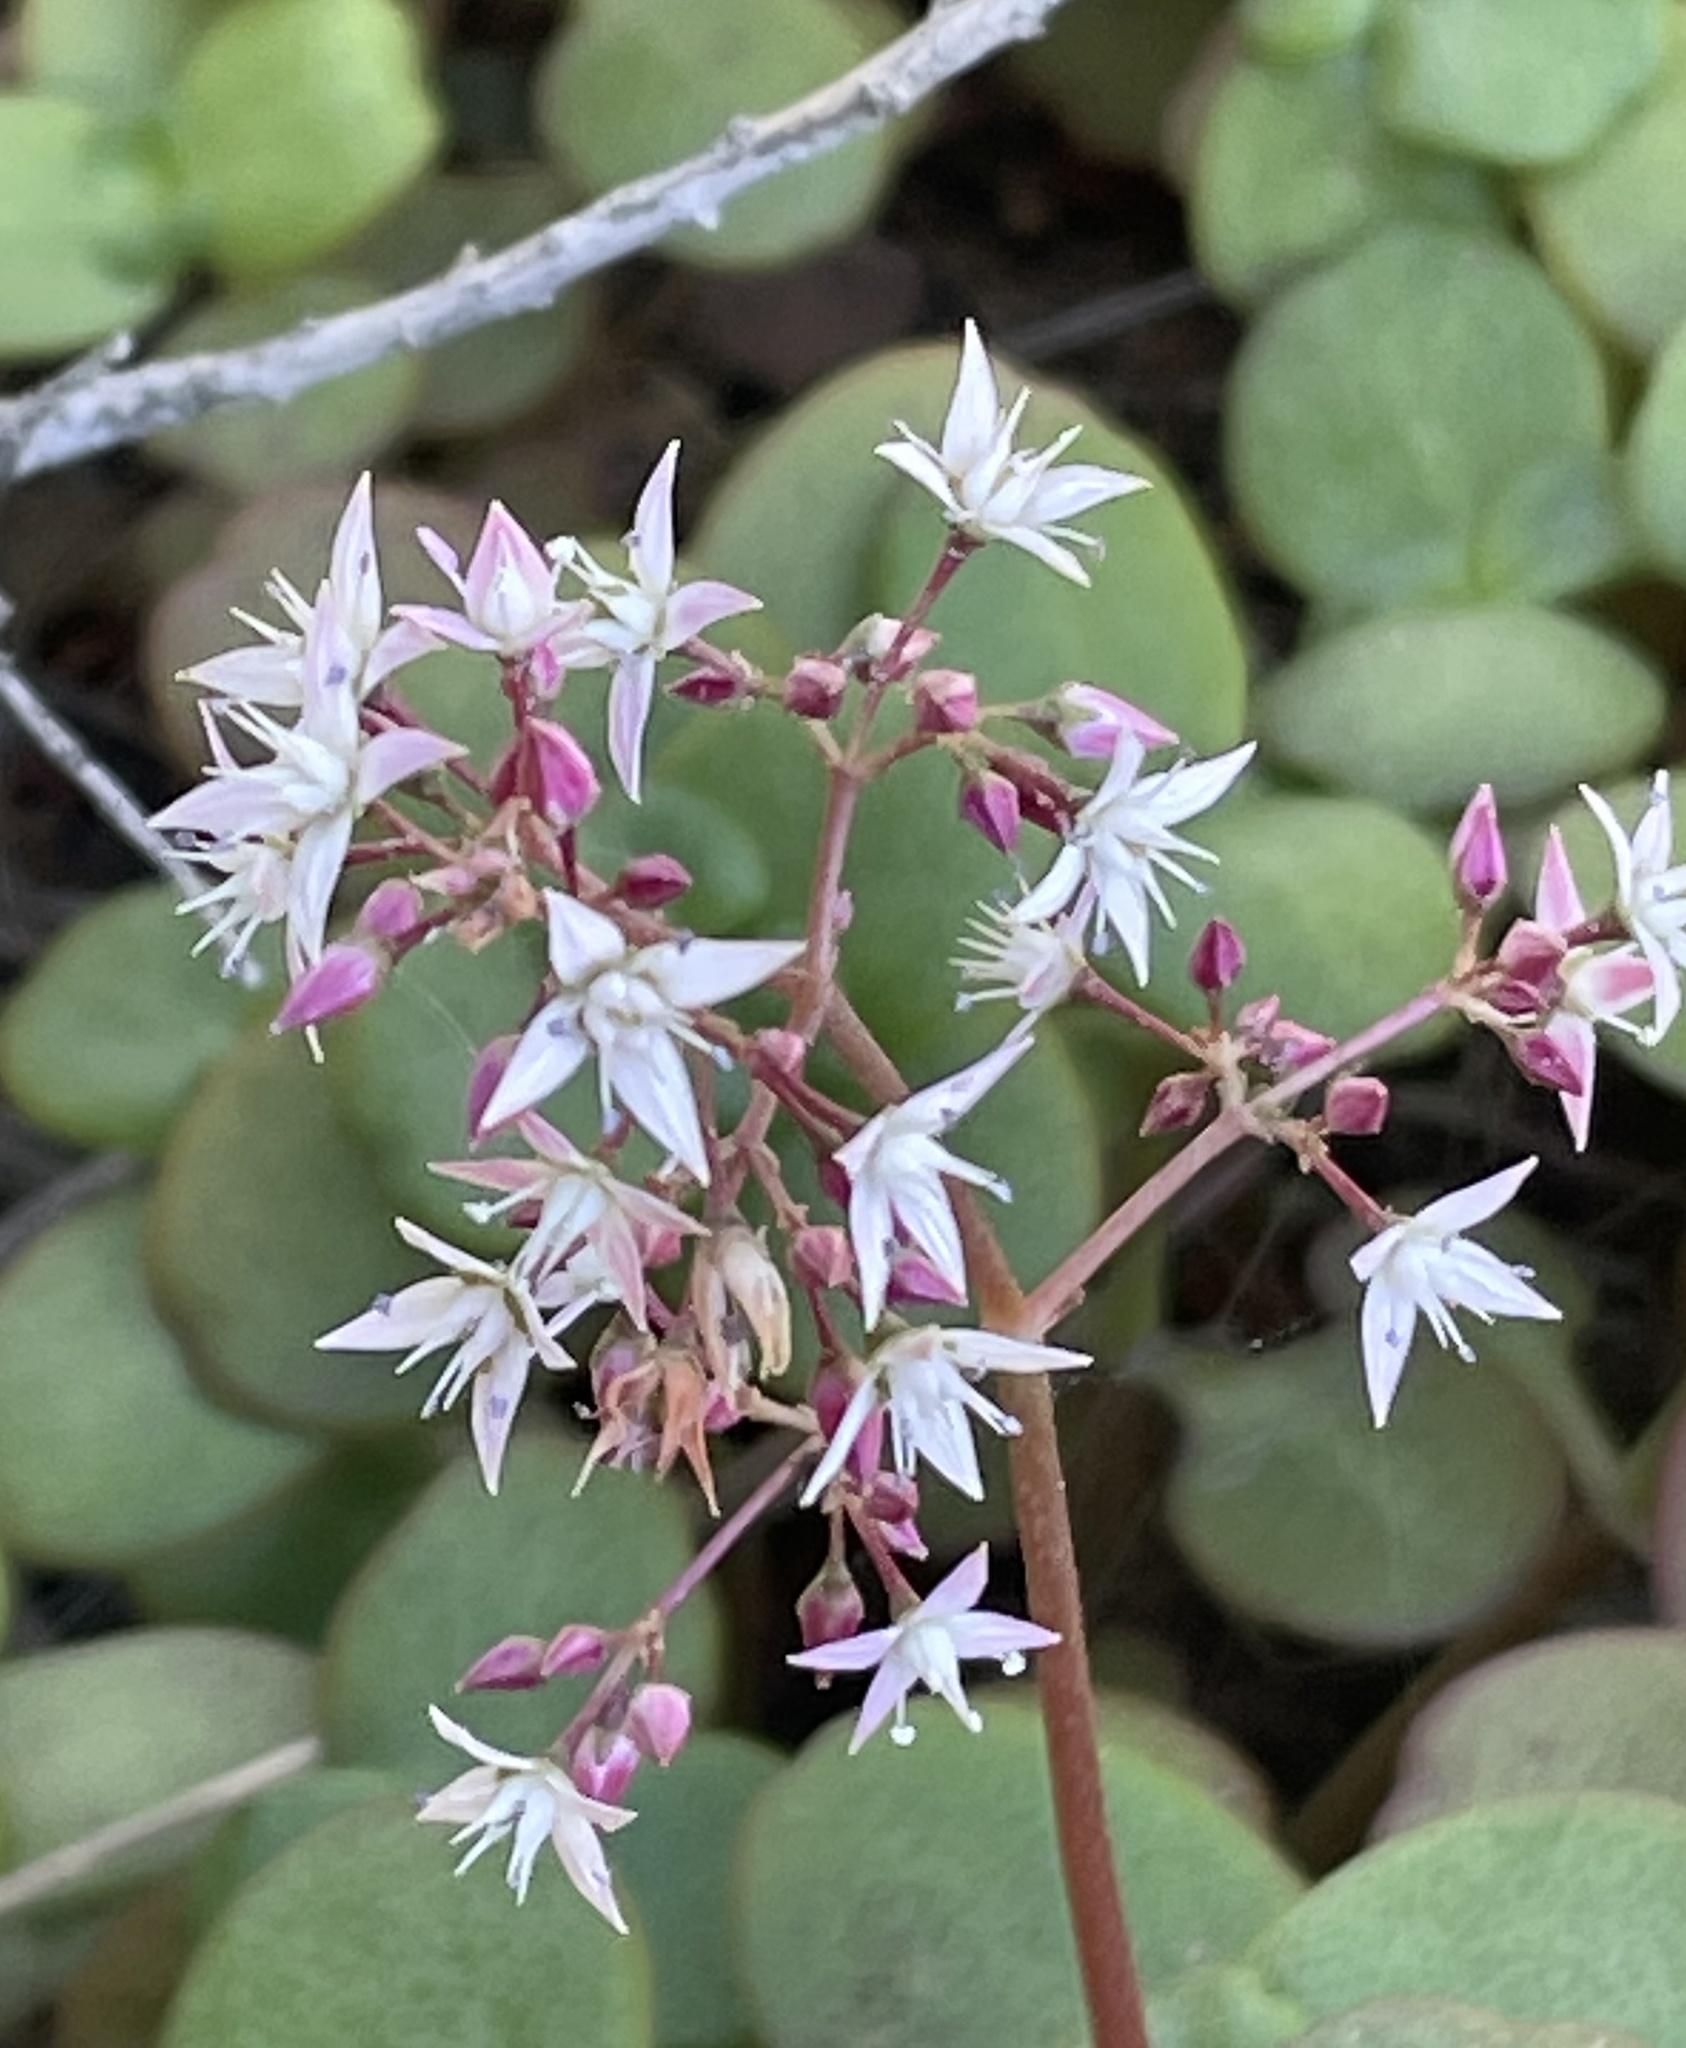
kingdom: Plantae
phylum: Tracheophyta
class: Magnoliopsida
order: Saxifragales
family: Crassulaceae
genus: Crassula
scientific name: Crassula multicava
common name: Cape province pygmyweed
